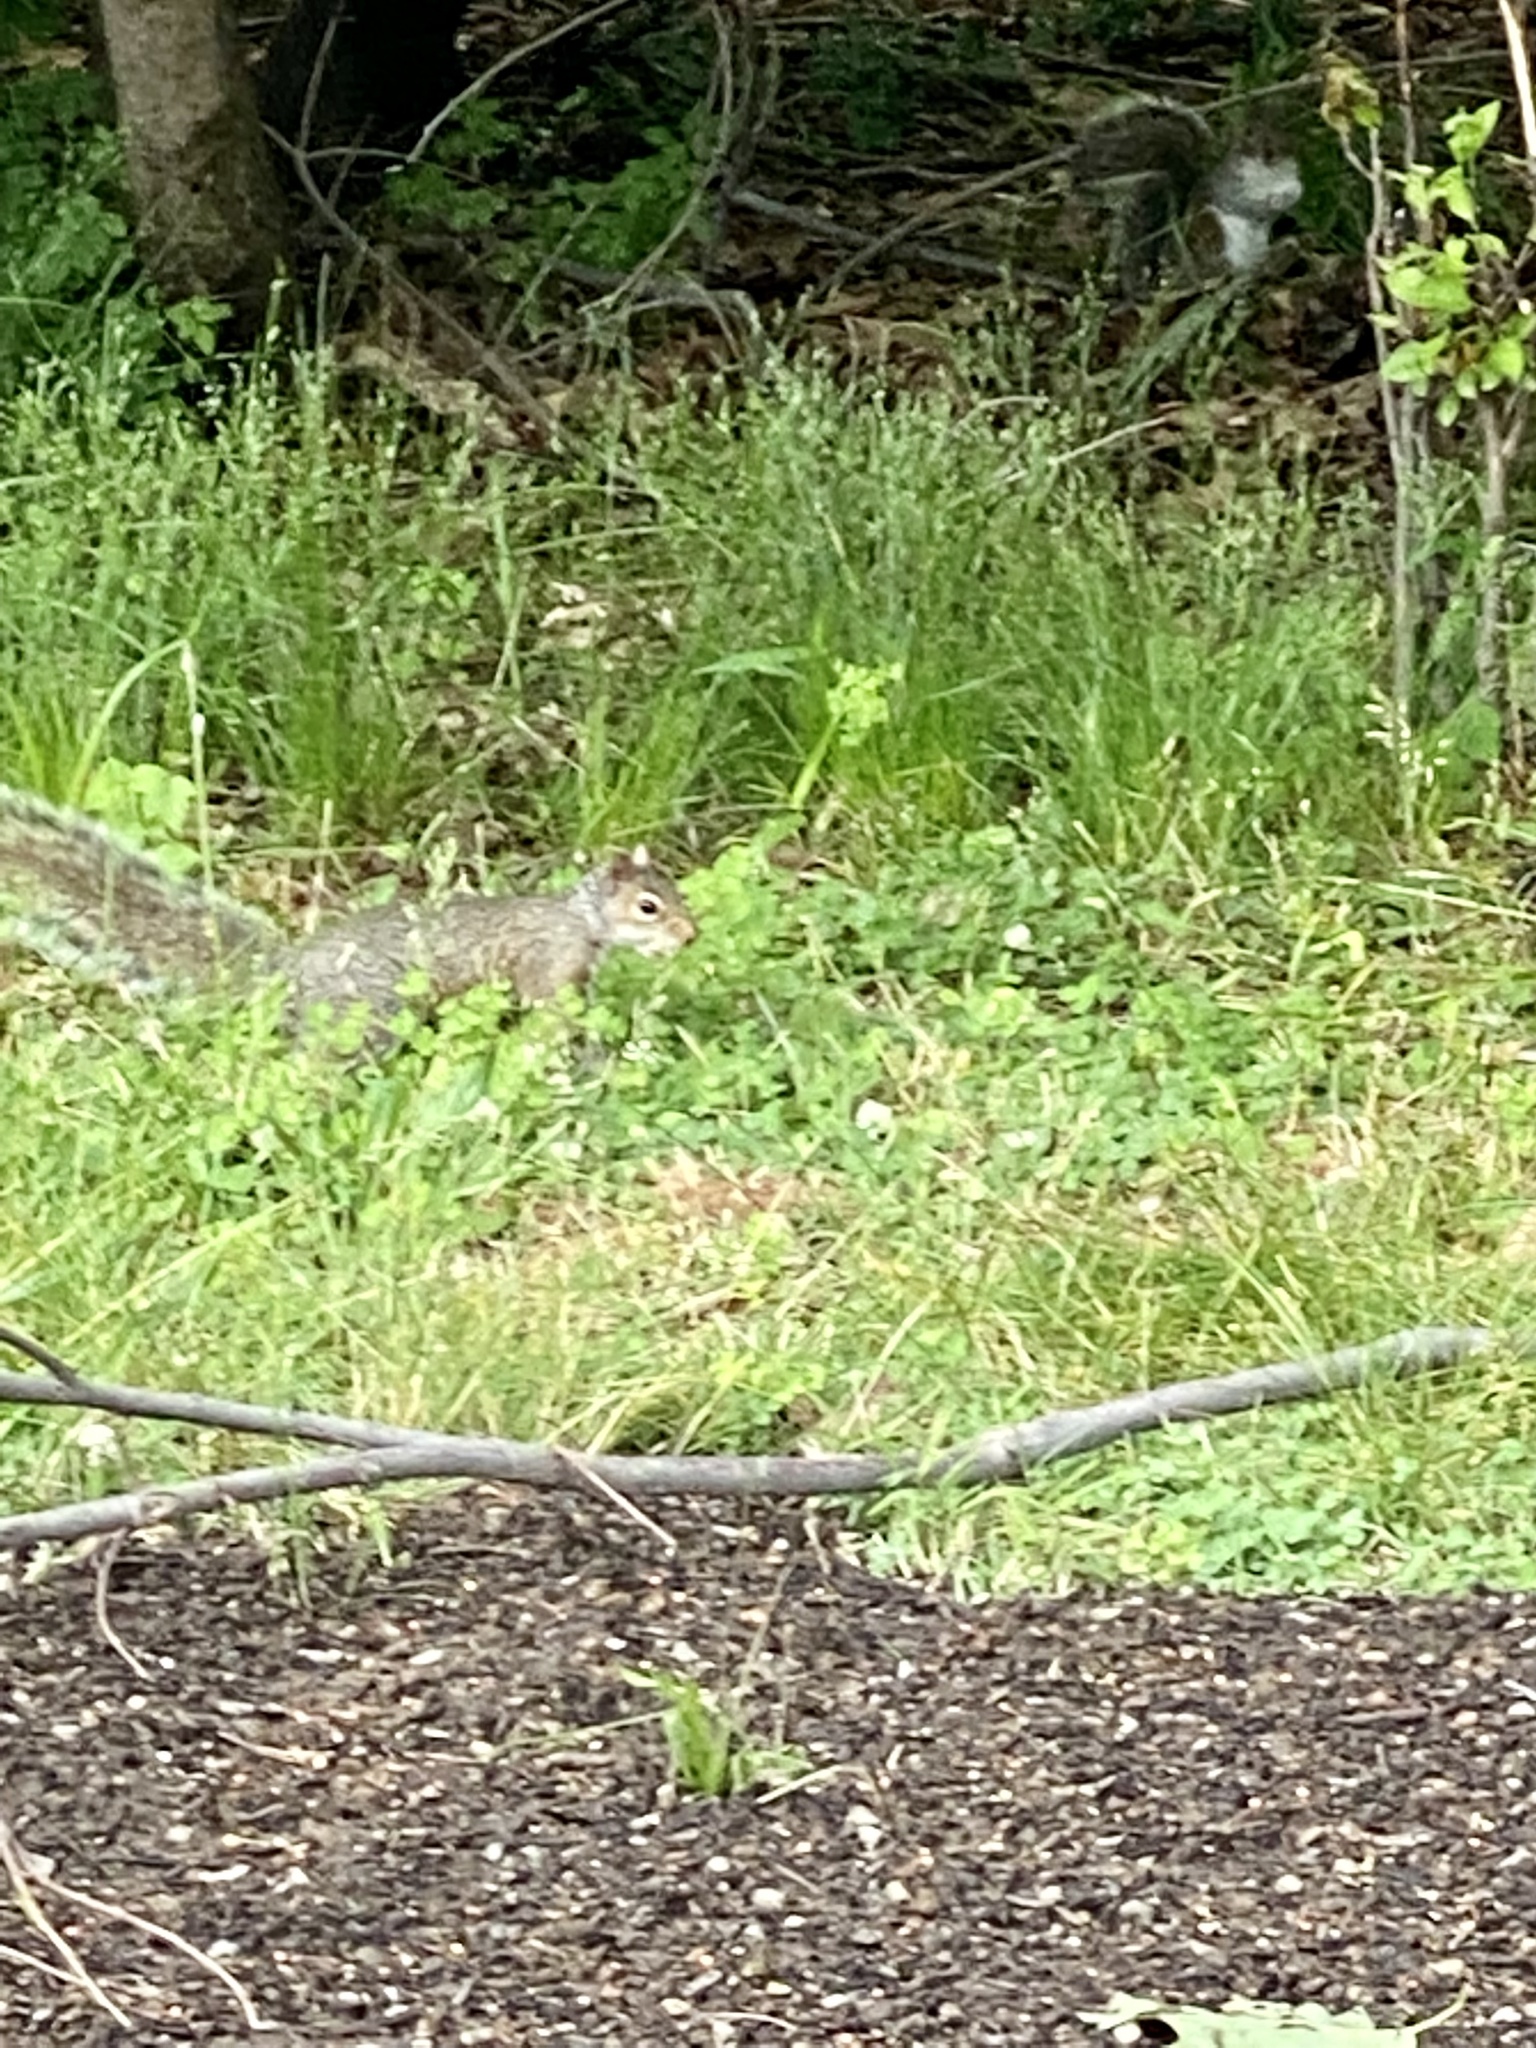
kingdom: Animalia
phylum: Chordata
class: Mammalia
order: Rodentia
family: Sciuridae
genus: Sciurus
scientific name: Sciurus carolinensis
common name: Eastern gray squirrel
